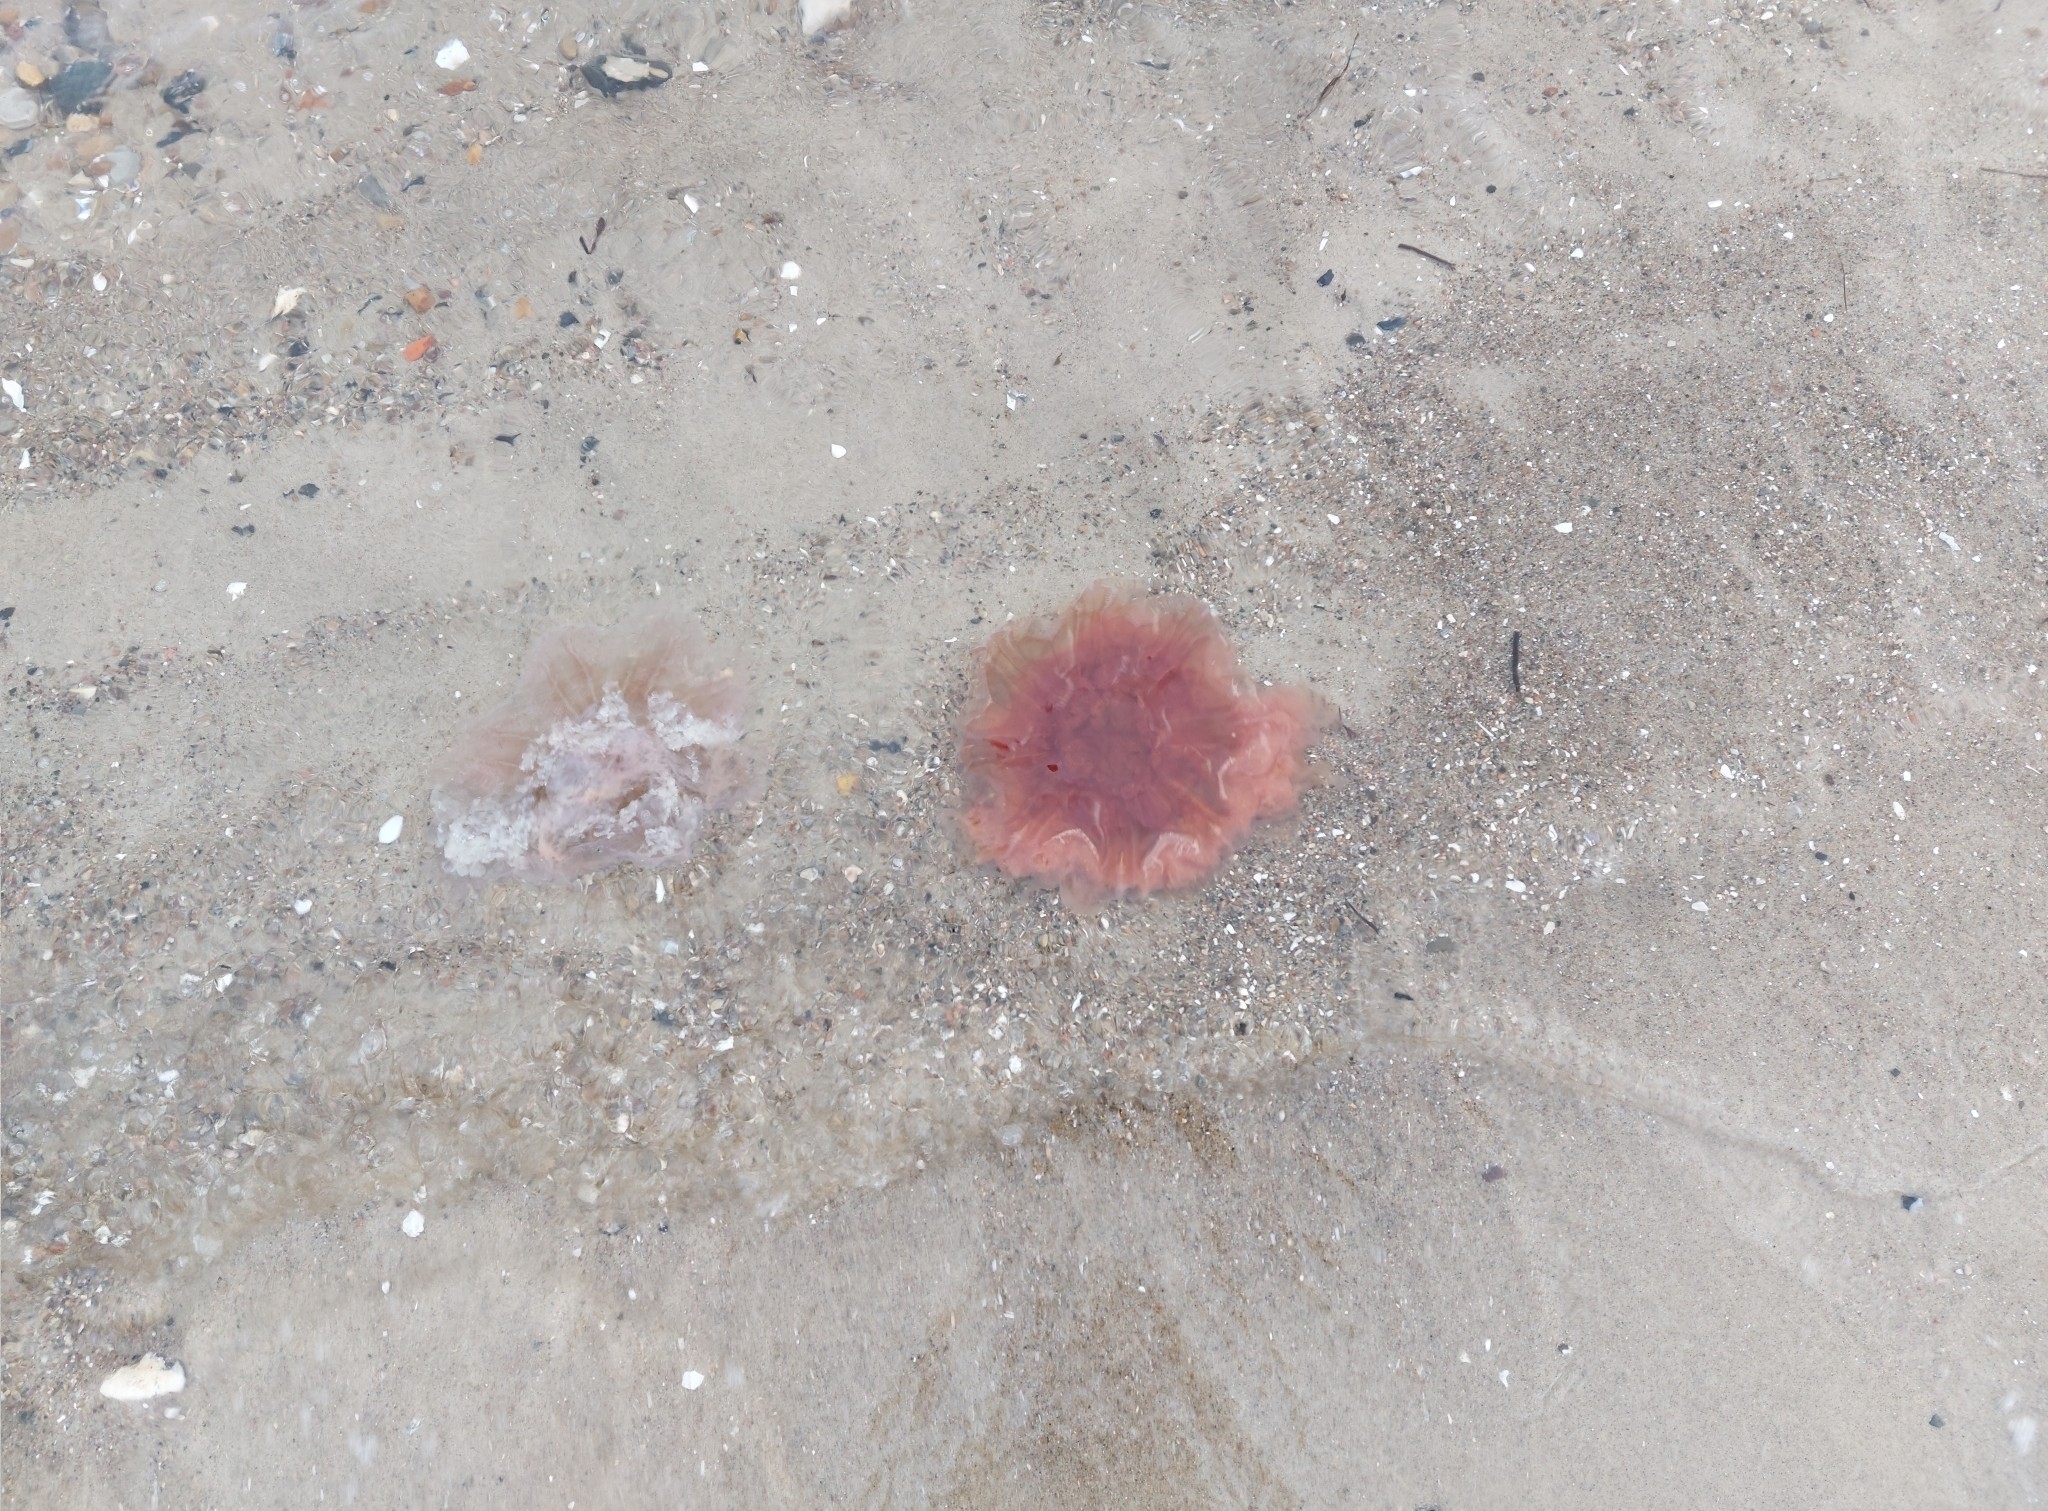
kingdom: Animalia
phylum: Cnidaria
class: Scyphozoa
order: Semaeostomeae
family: Cyaneidae
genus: Cyanea
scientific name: Cyanea capillata
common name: Lion's mane jellyfish
